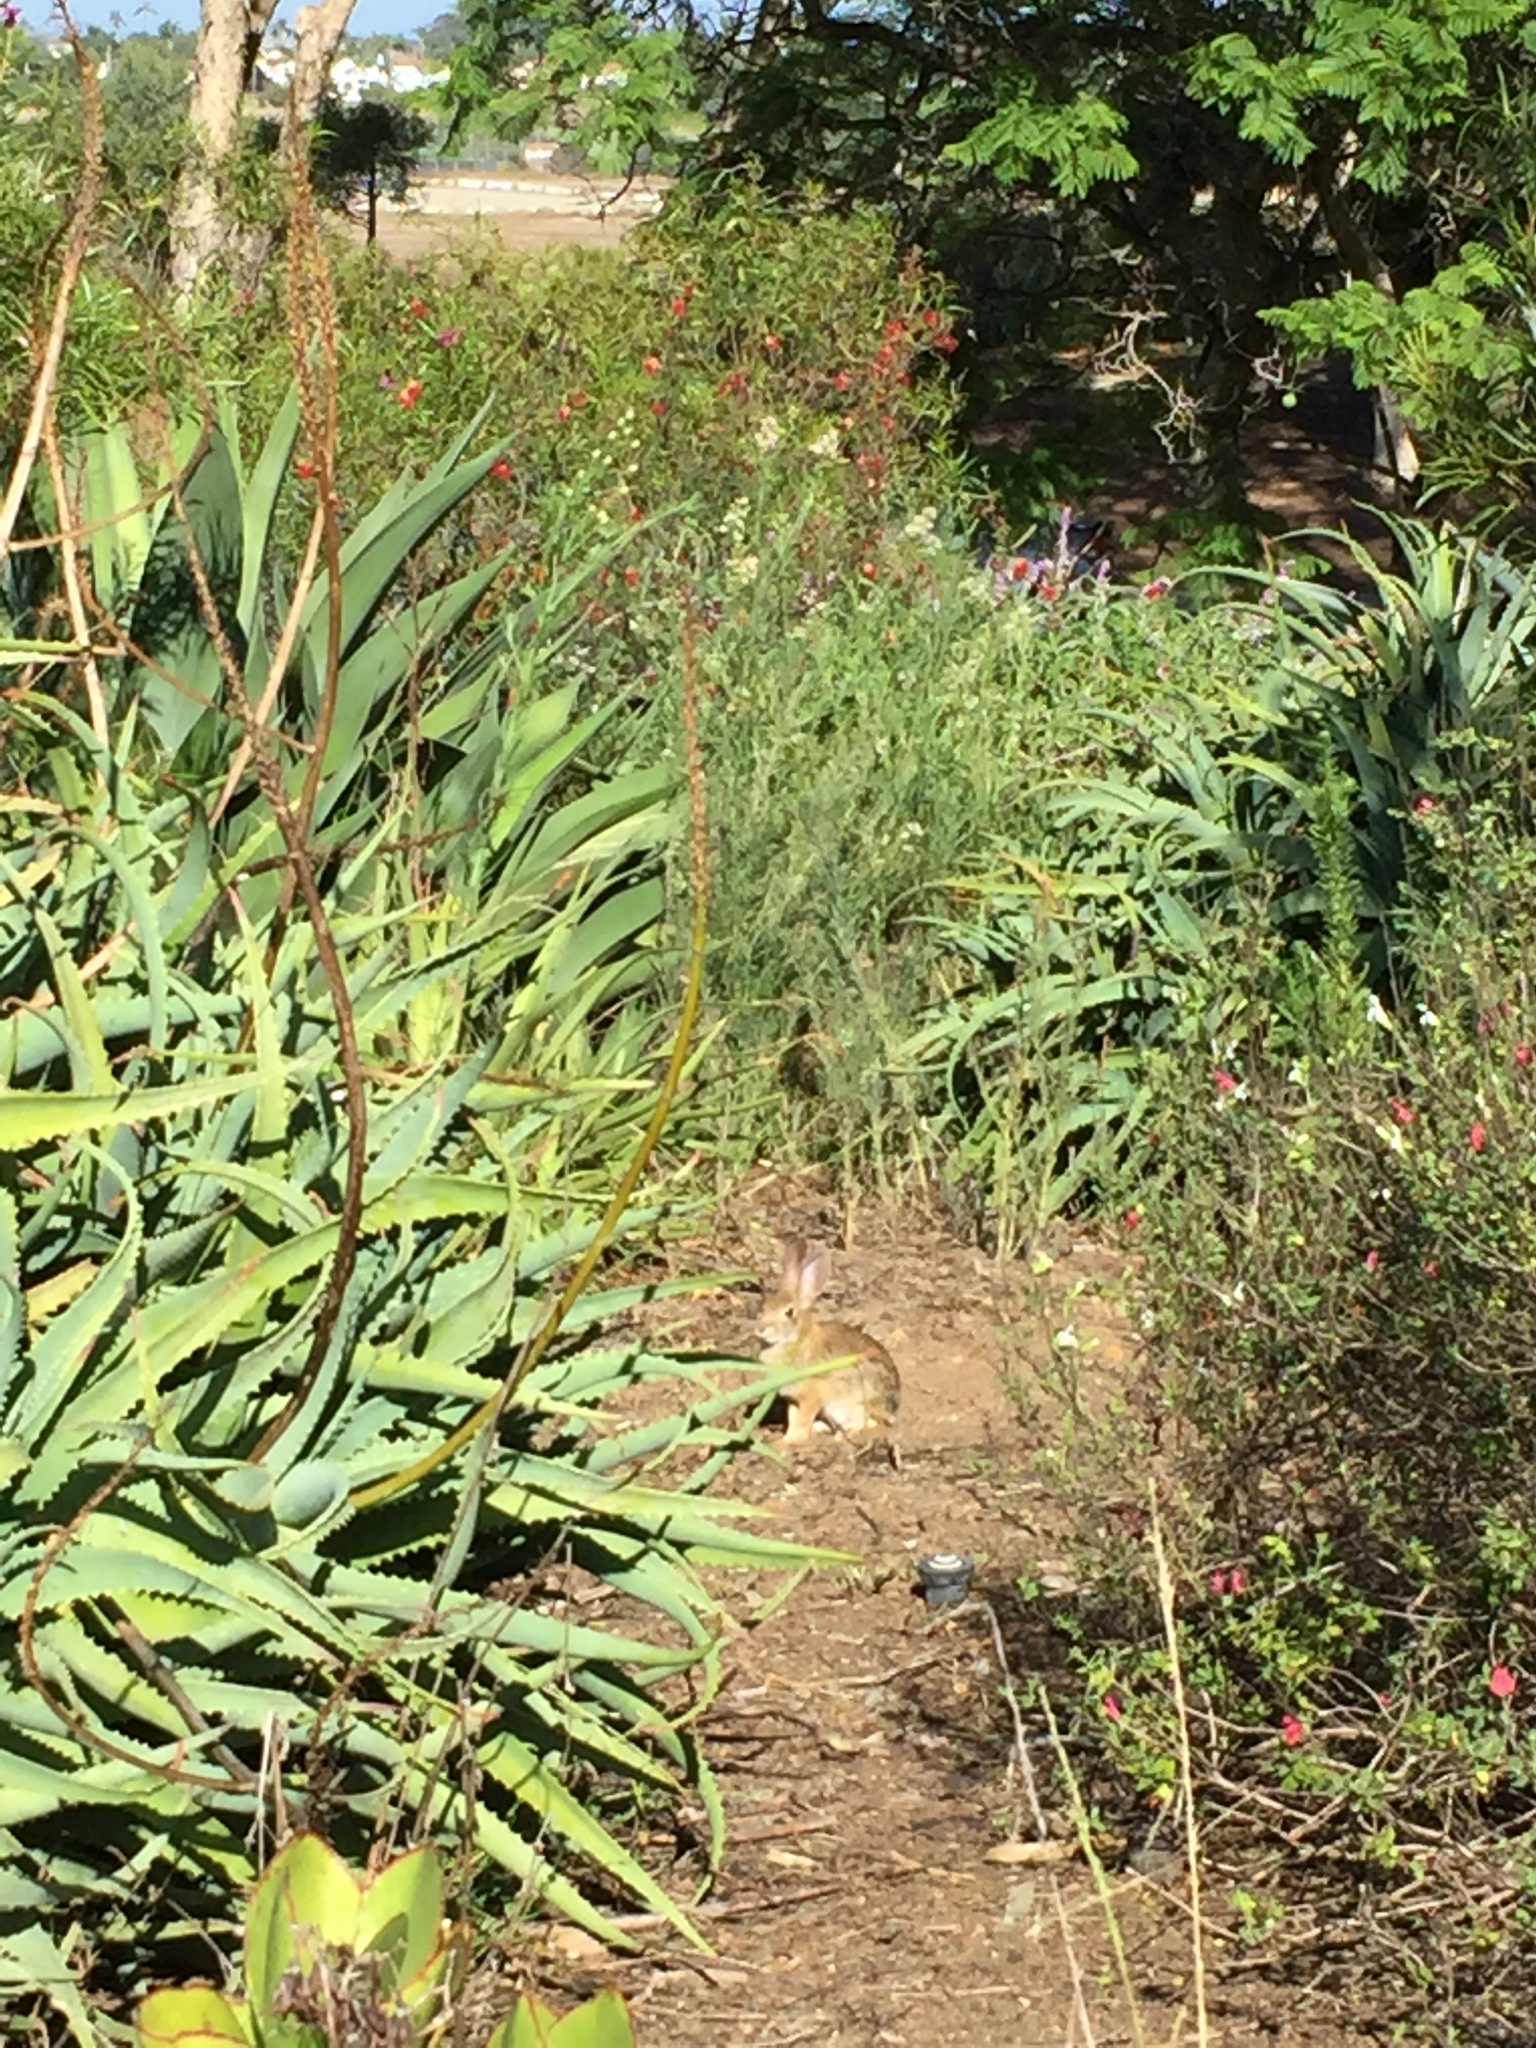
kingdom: Animalia
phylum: Chordata
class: Mammalia
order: Lagomorpha
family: Leporidae
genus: Sylvilagus
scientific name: Sylvilagus audubonii
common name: Desert cottontail
